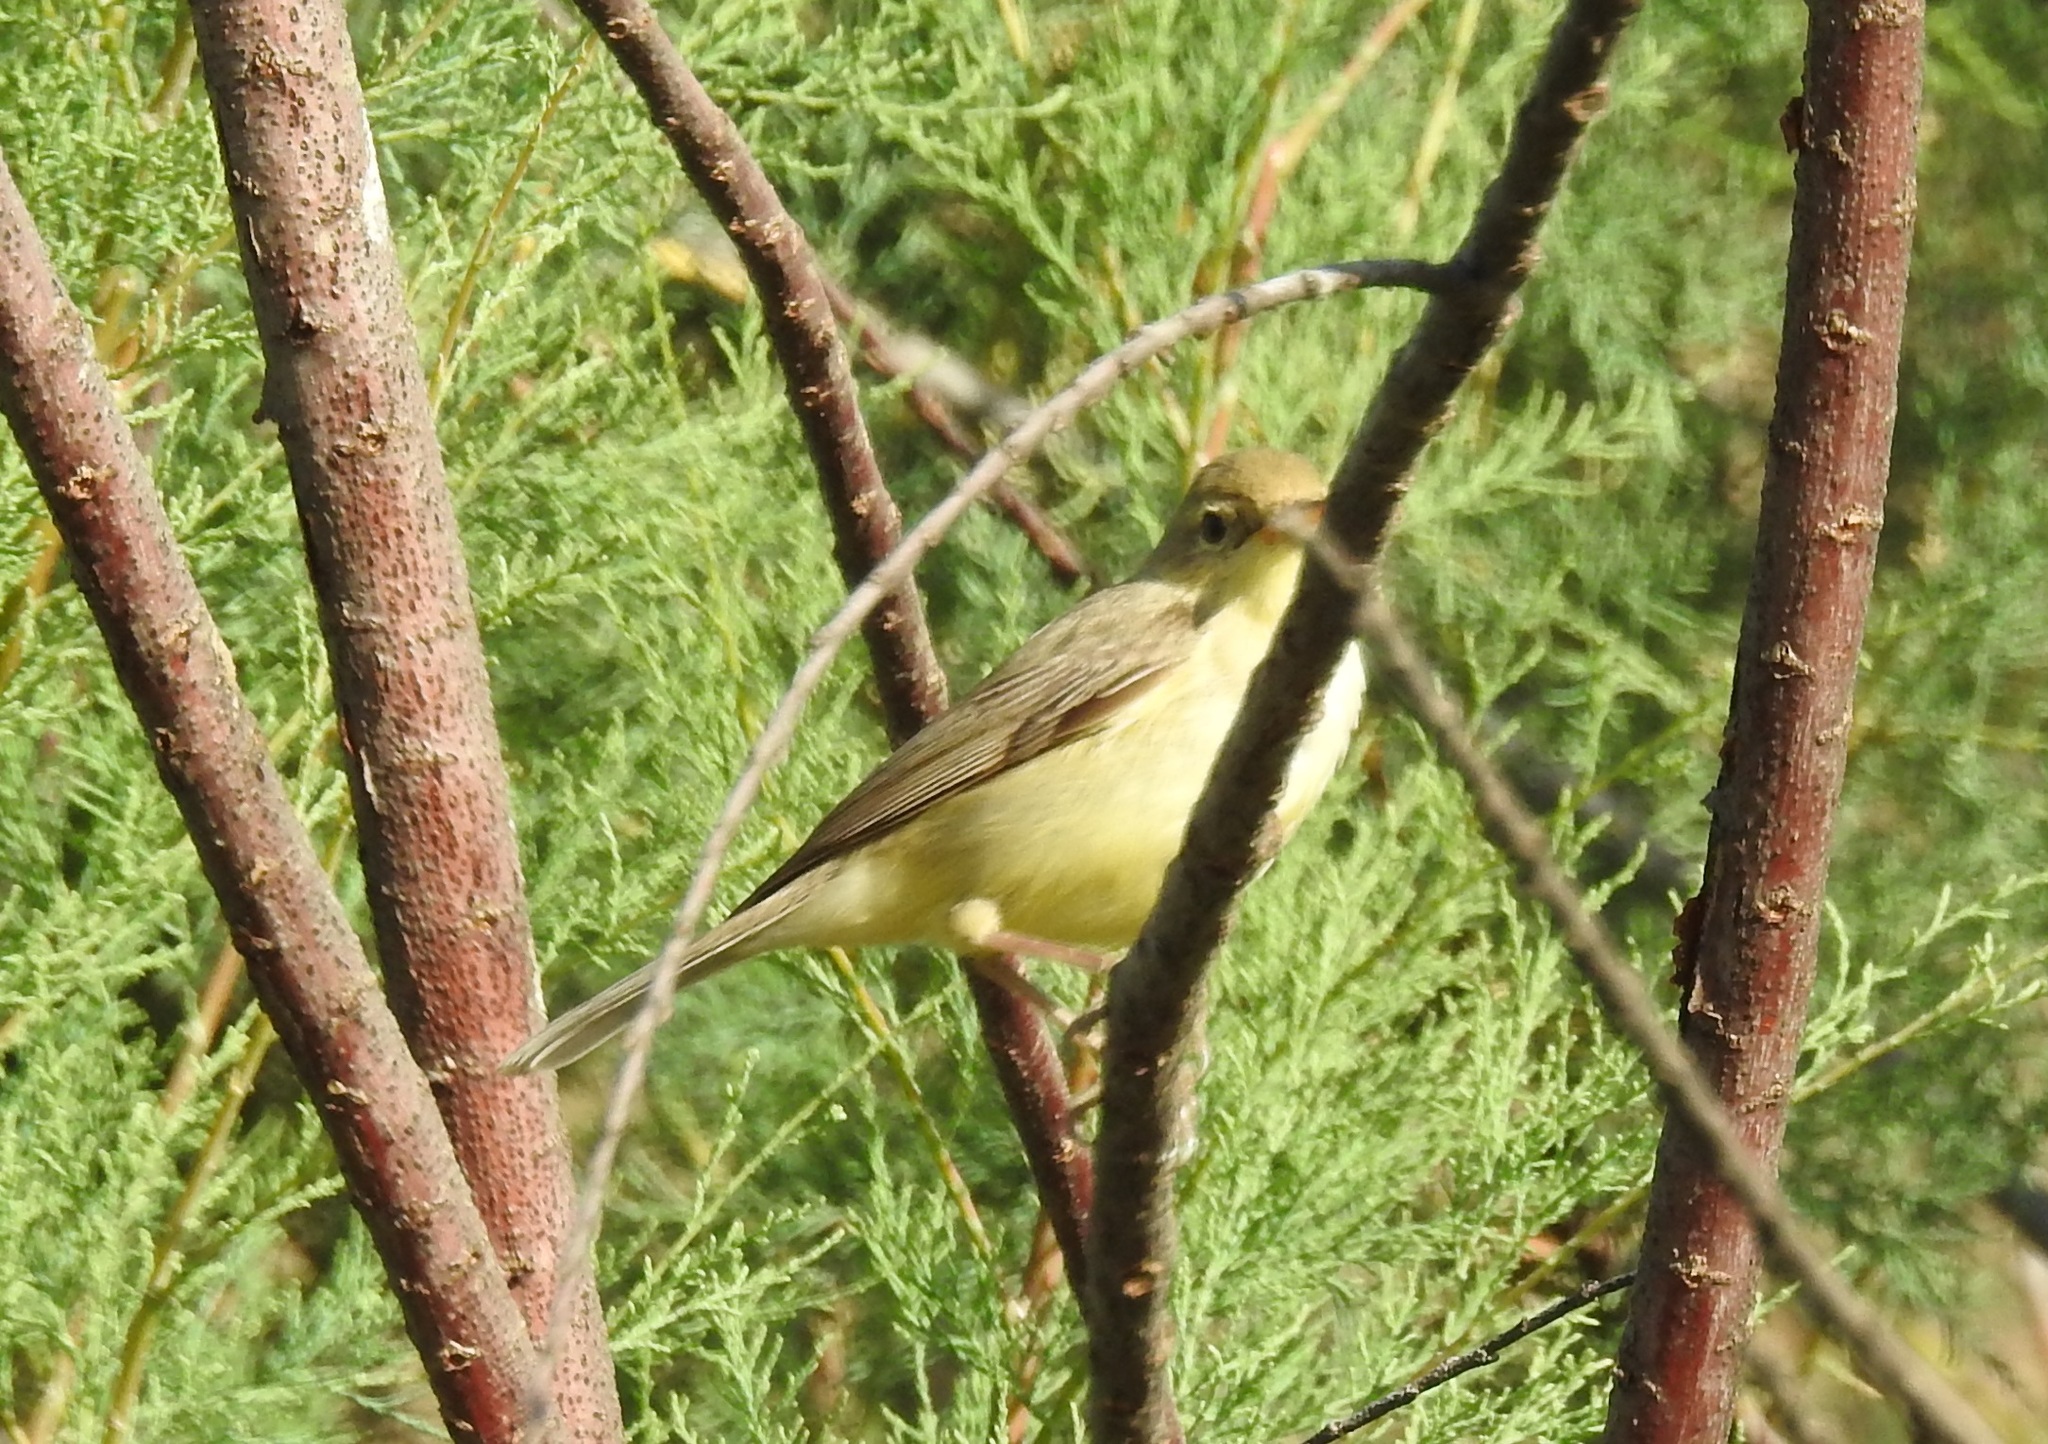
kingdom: Animalia
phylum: Chordata
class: Aves
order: Passeriformes
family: Acrocephalidae
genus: Hippolais
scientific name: Hippolais polyglotta
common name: Melodious warbler
